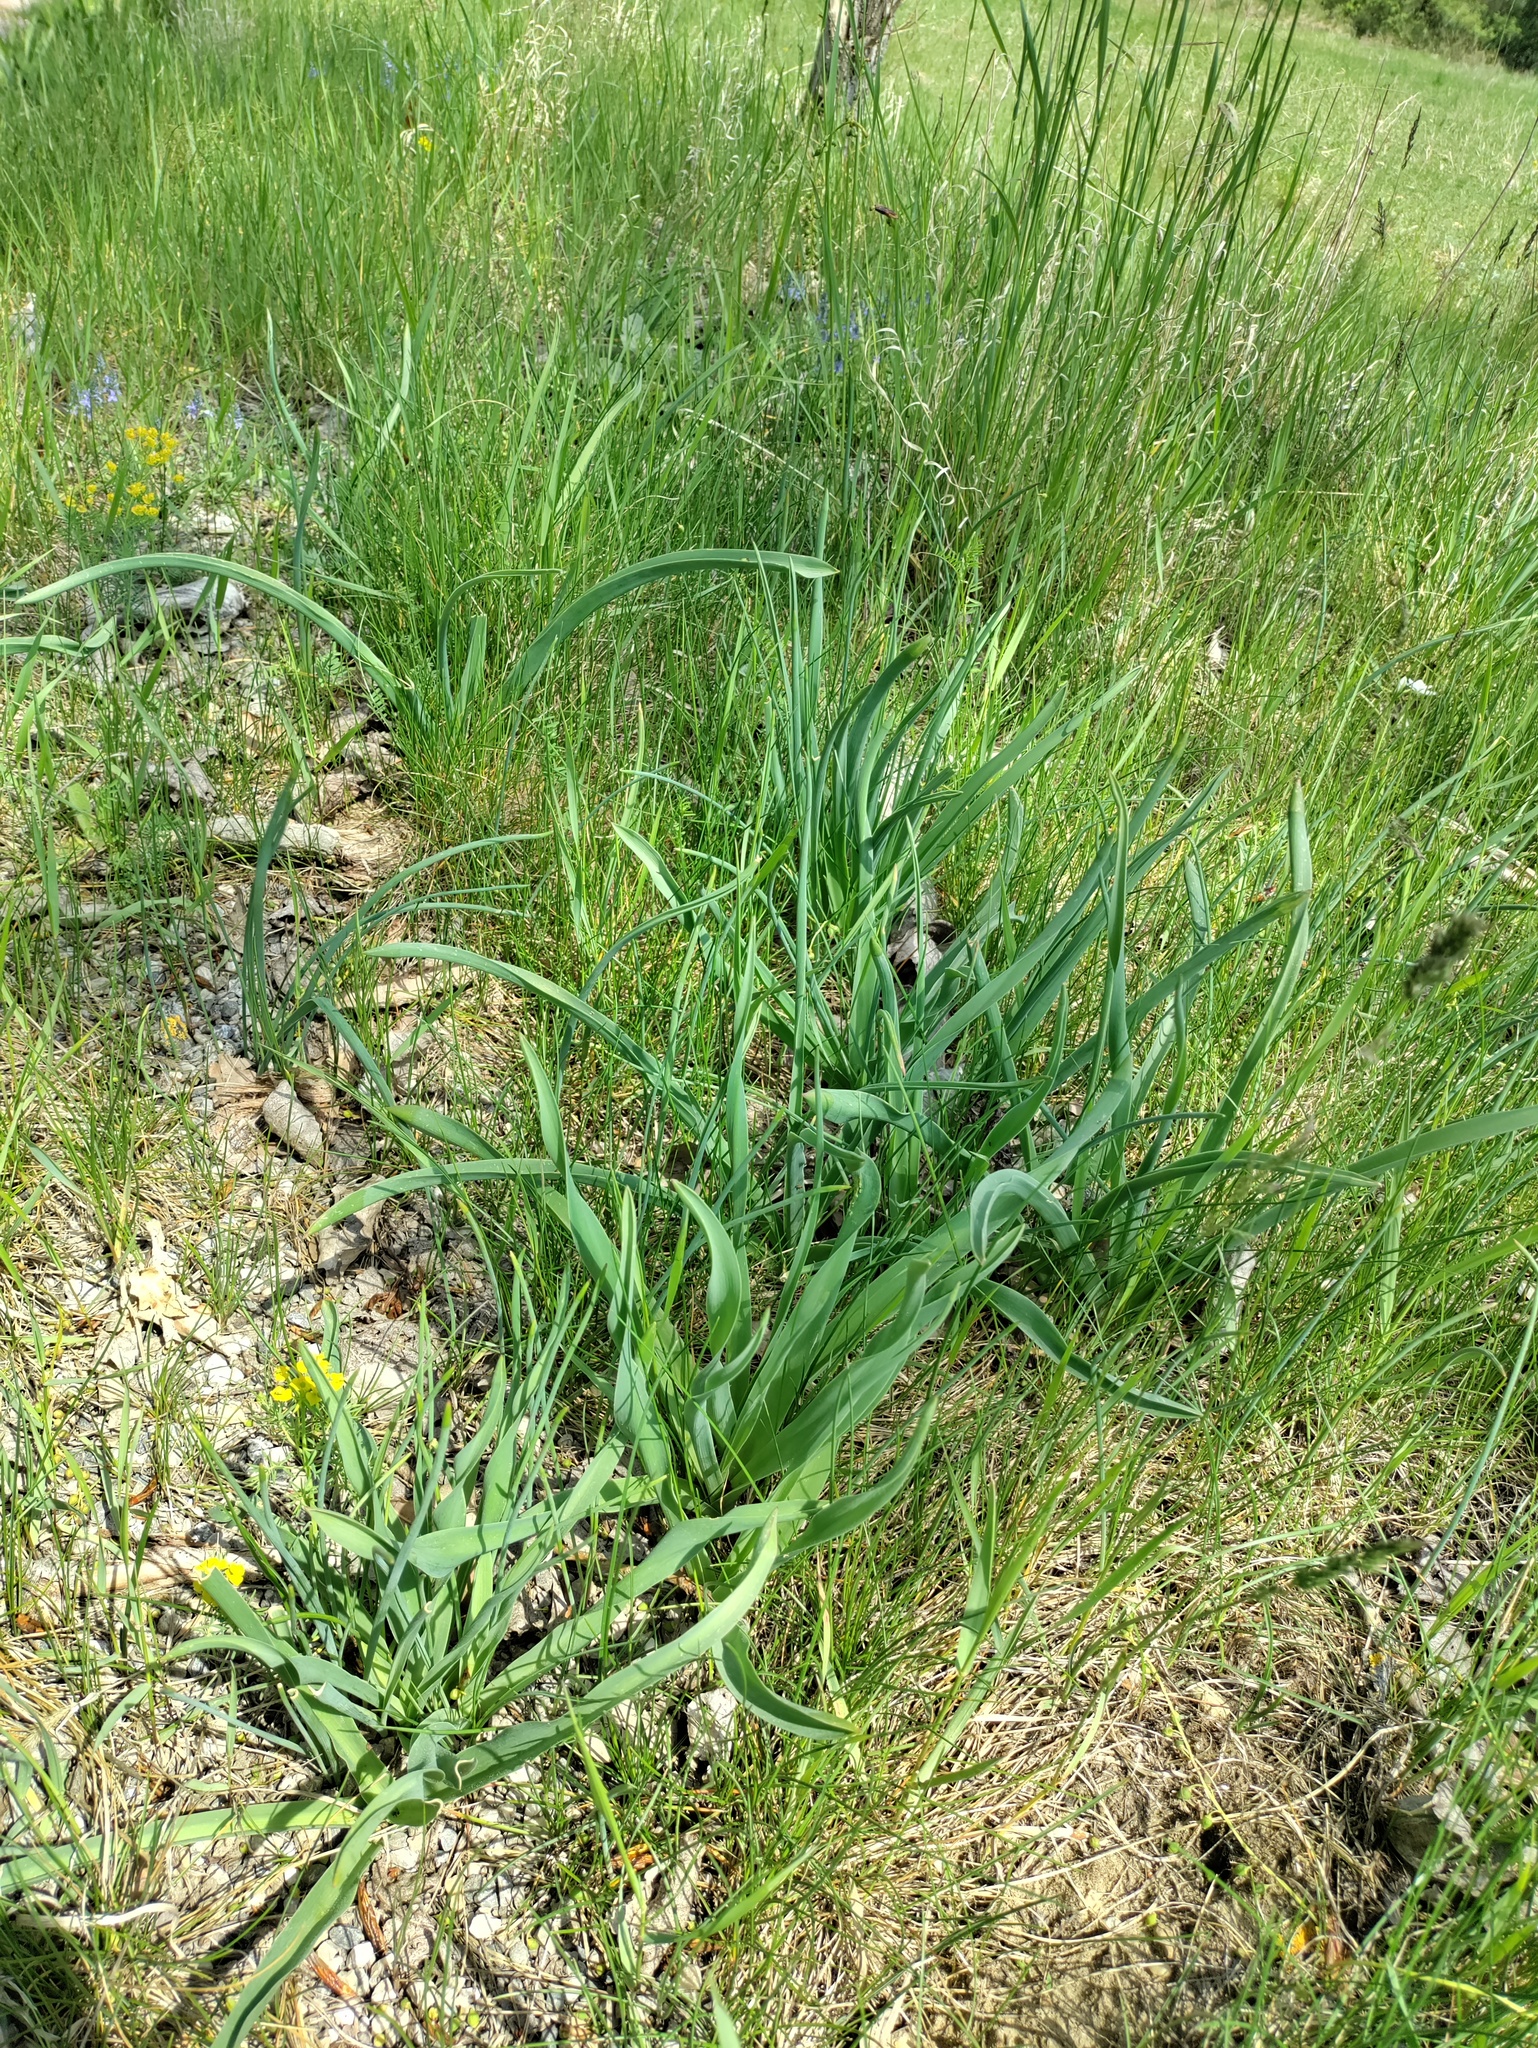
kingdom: Plantae
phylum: Tracheophyta
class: Liliopsida
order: Asparagales
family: Asparagaceae
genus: Muscari
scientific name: Muscari comosum
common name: Tassel hyacinth
